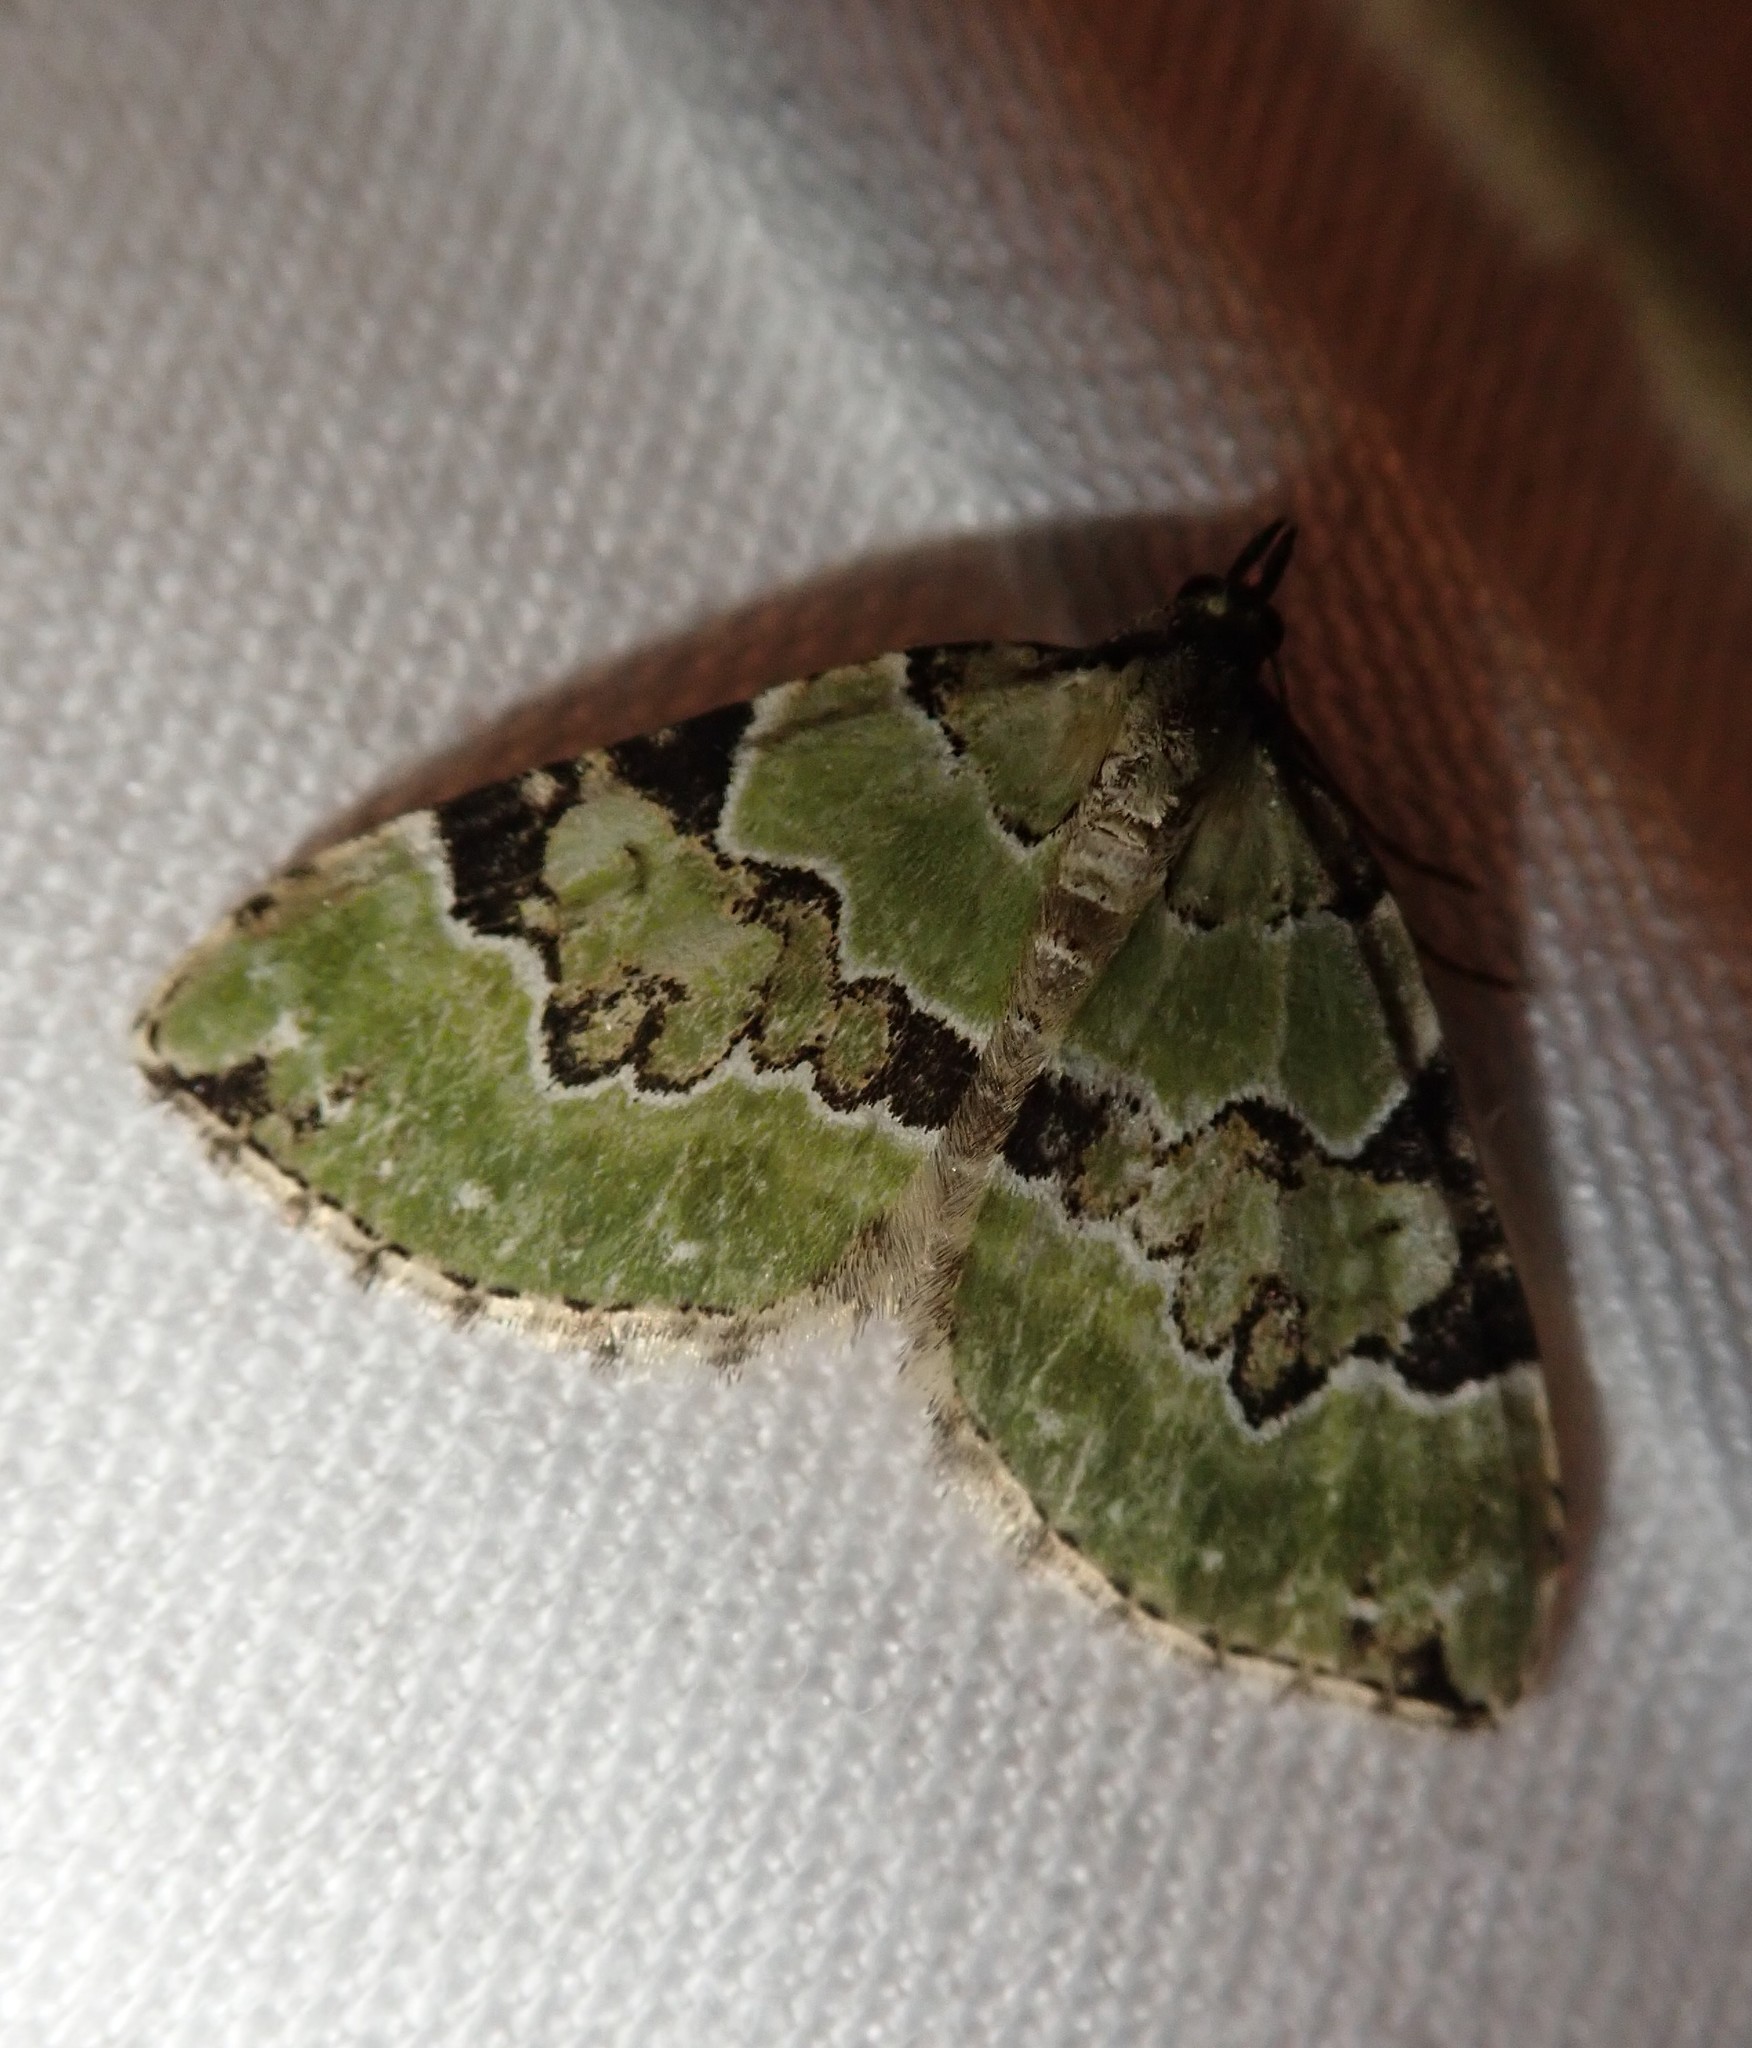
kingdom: Animalia
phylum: Arthropoda
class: Insecta
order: Lepidoptera
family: Geometridae
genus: Colostygia
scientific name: Colostygia pectinataria
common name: Green carpet
